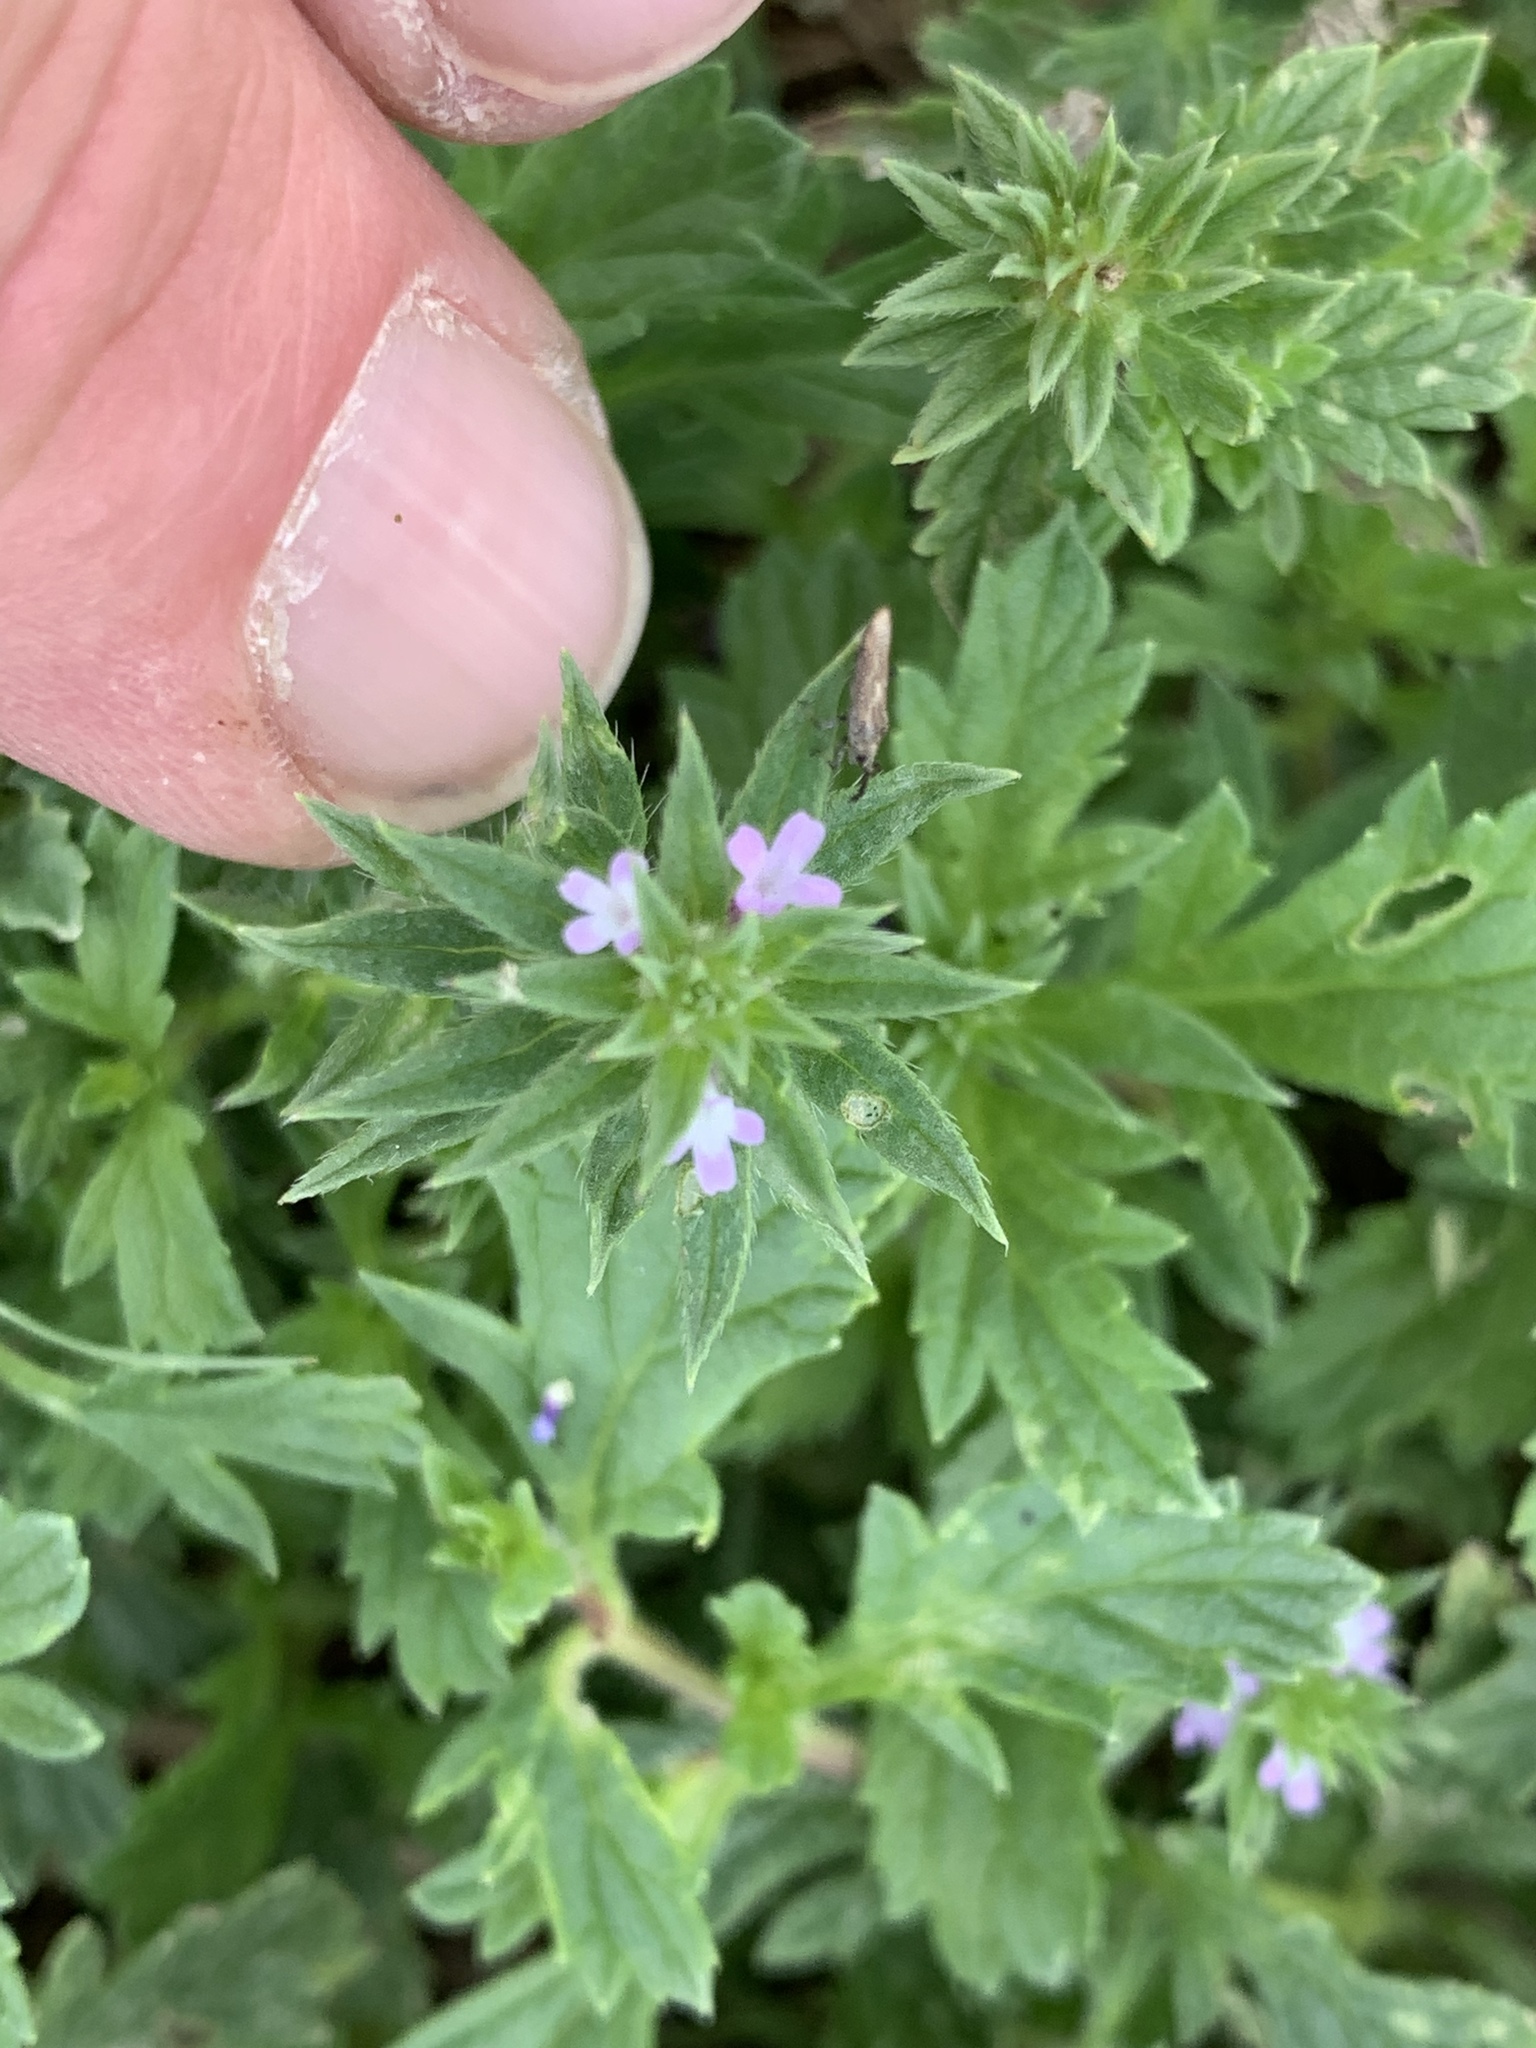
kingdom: Plantae
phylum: Tracheophyta
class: Magnoliopsida
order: Lamiales
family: Verbenaceae
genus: Verbena
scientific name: Verbena bracteata
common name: Bracted vervain
